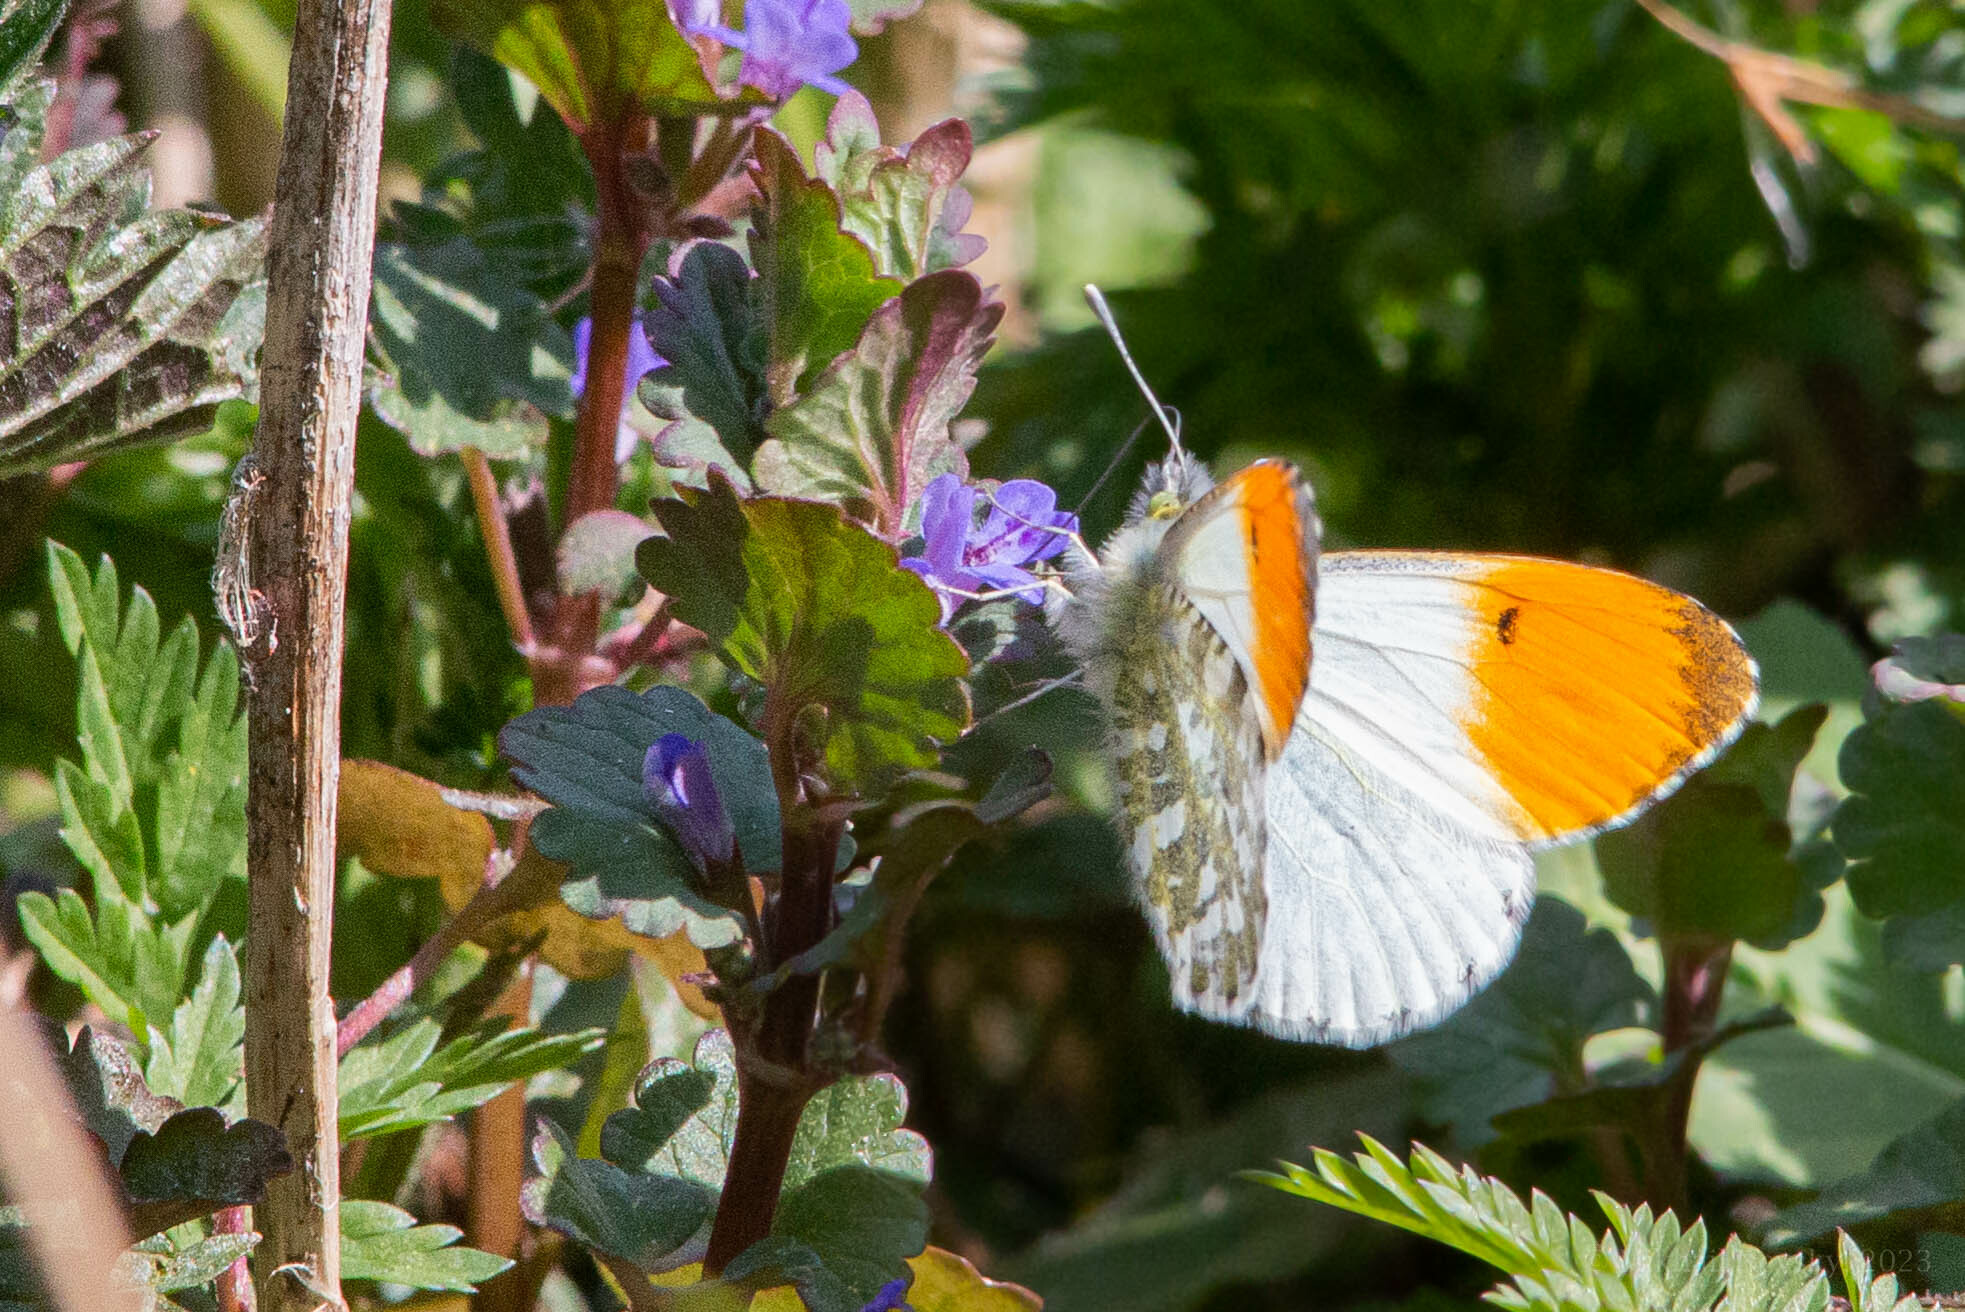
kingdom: Animalia
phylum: Arthropoda
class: Insecta
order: Lepidoptera
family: Pieridae
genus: Anthocharis
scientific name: Anthocharis cardamines
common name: Orange-tip
